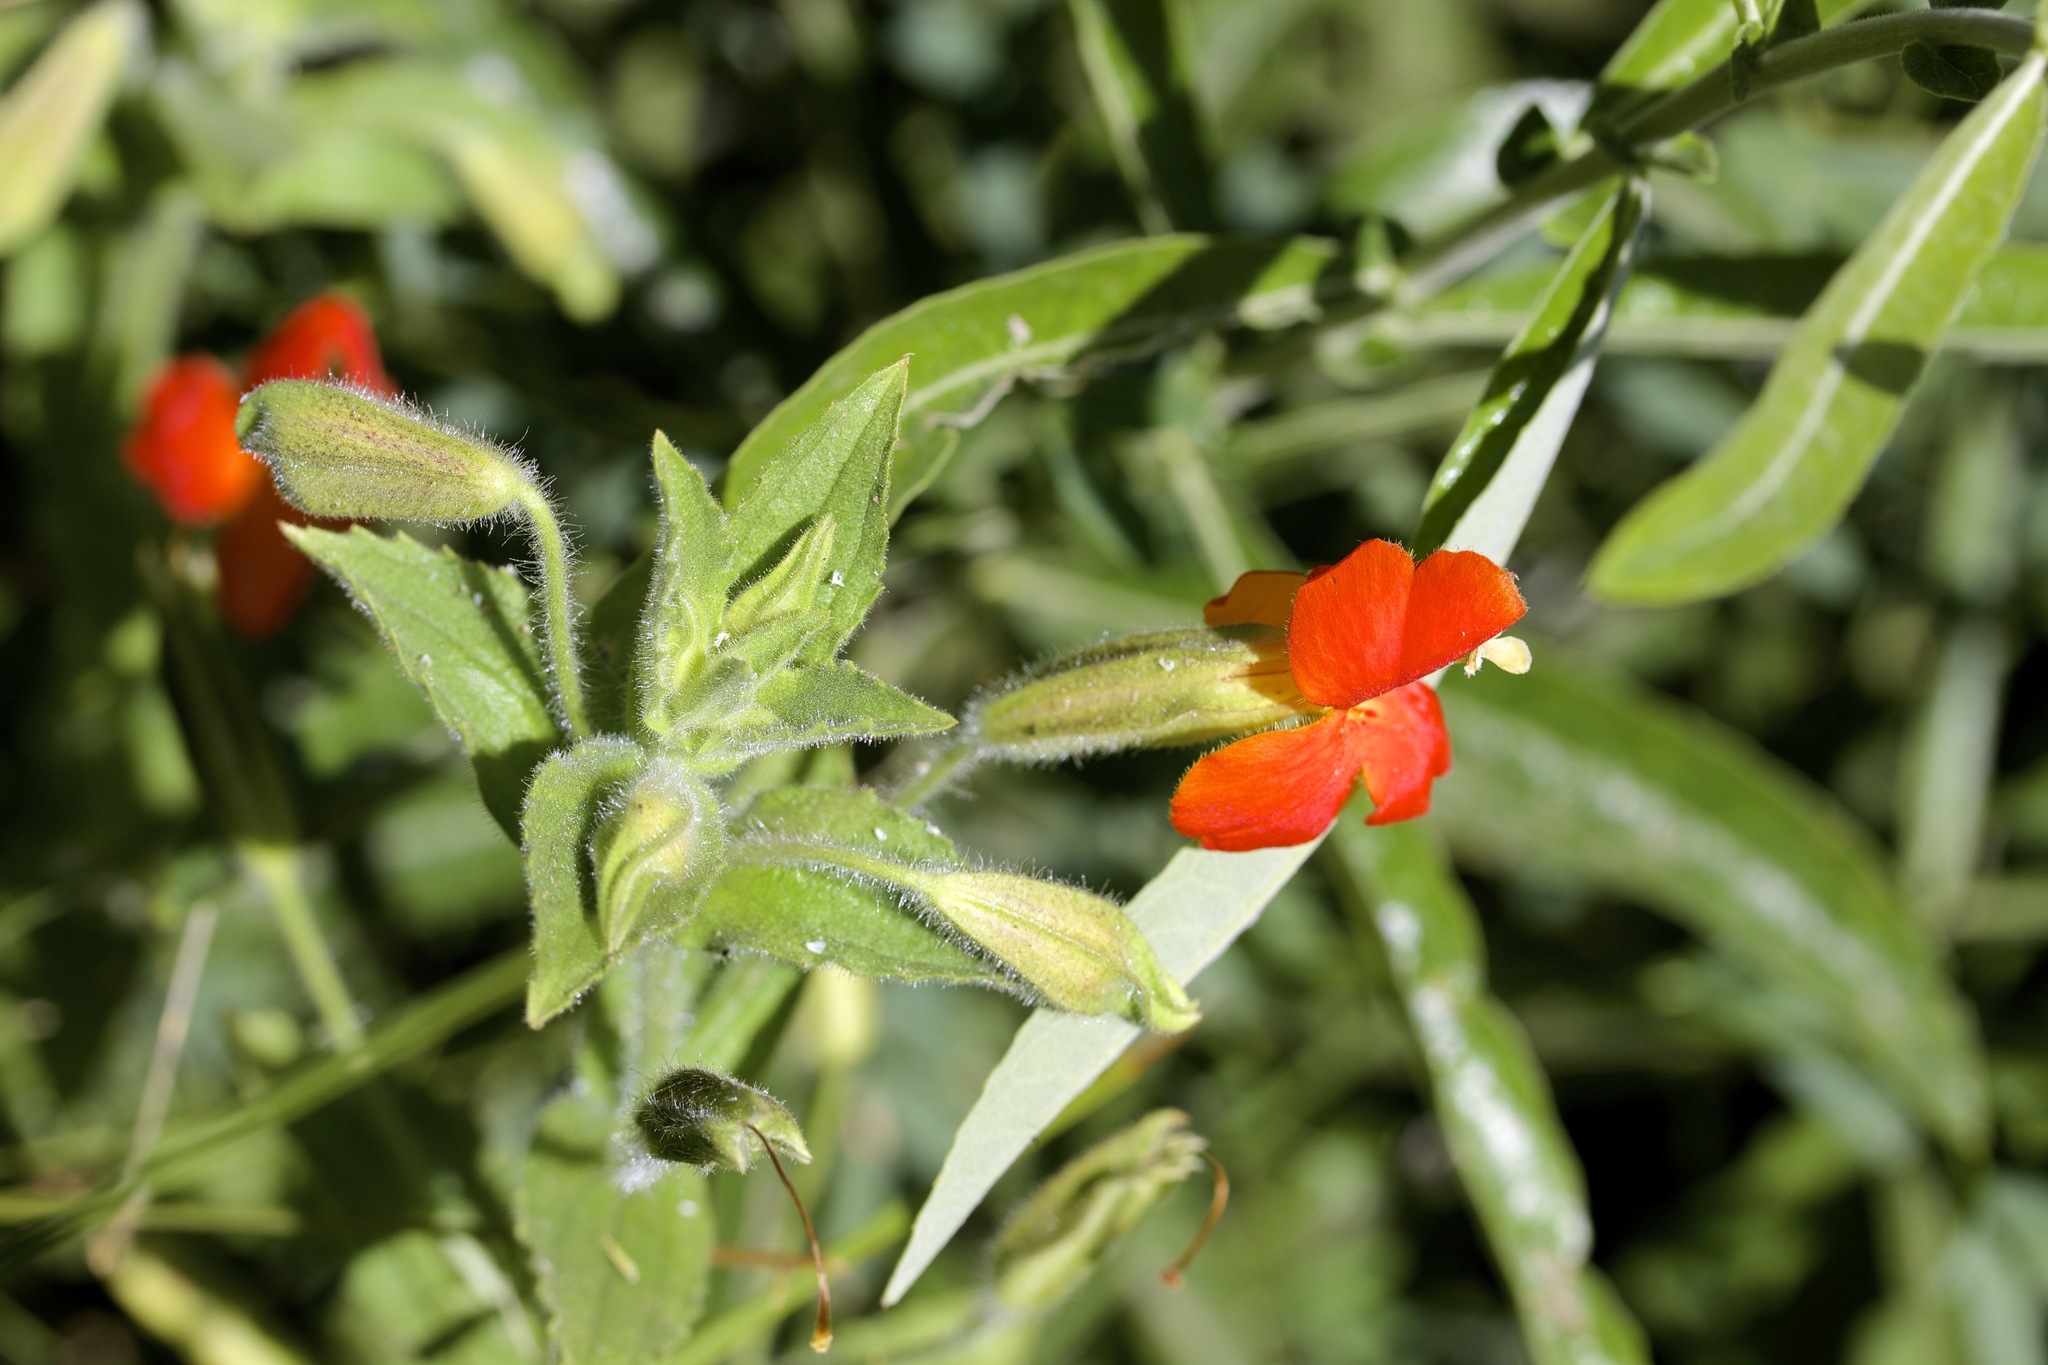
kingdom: Plantae
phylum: Tracheophyta
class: Magnoliopsida
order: Lamiales
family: Phrymaceae
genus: Erythranthe
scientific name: Erythranthe cardinalis
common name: Scarlet monkey-flower
